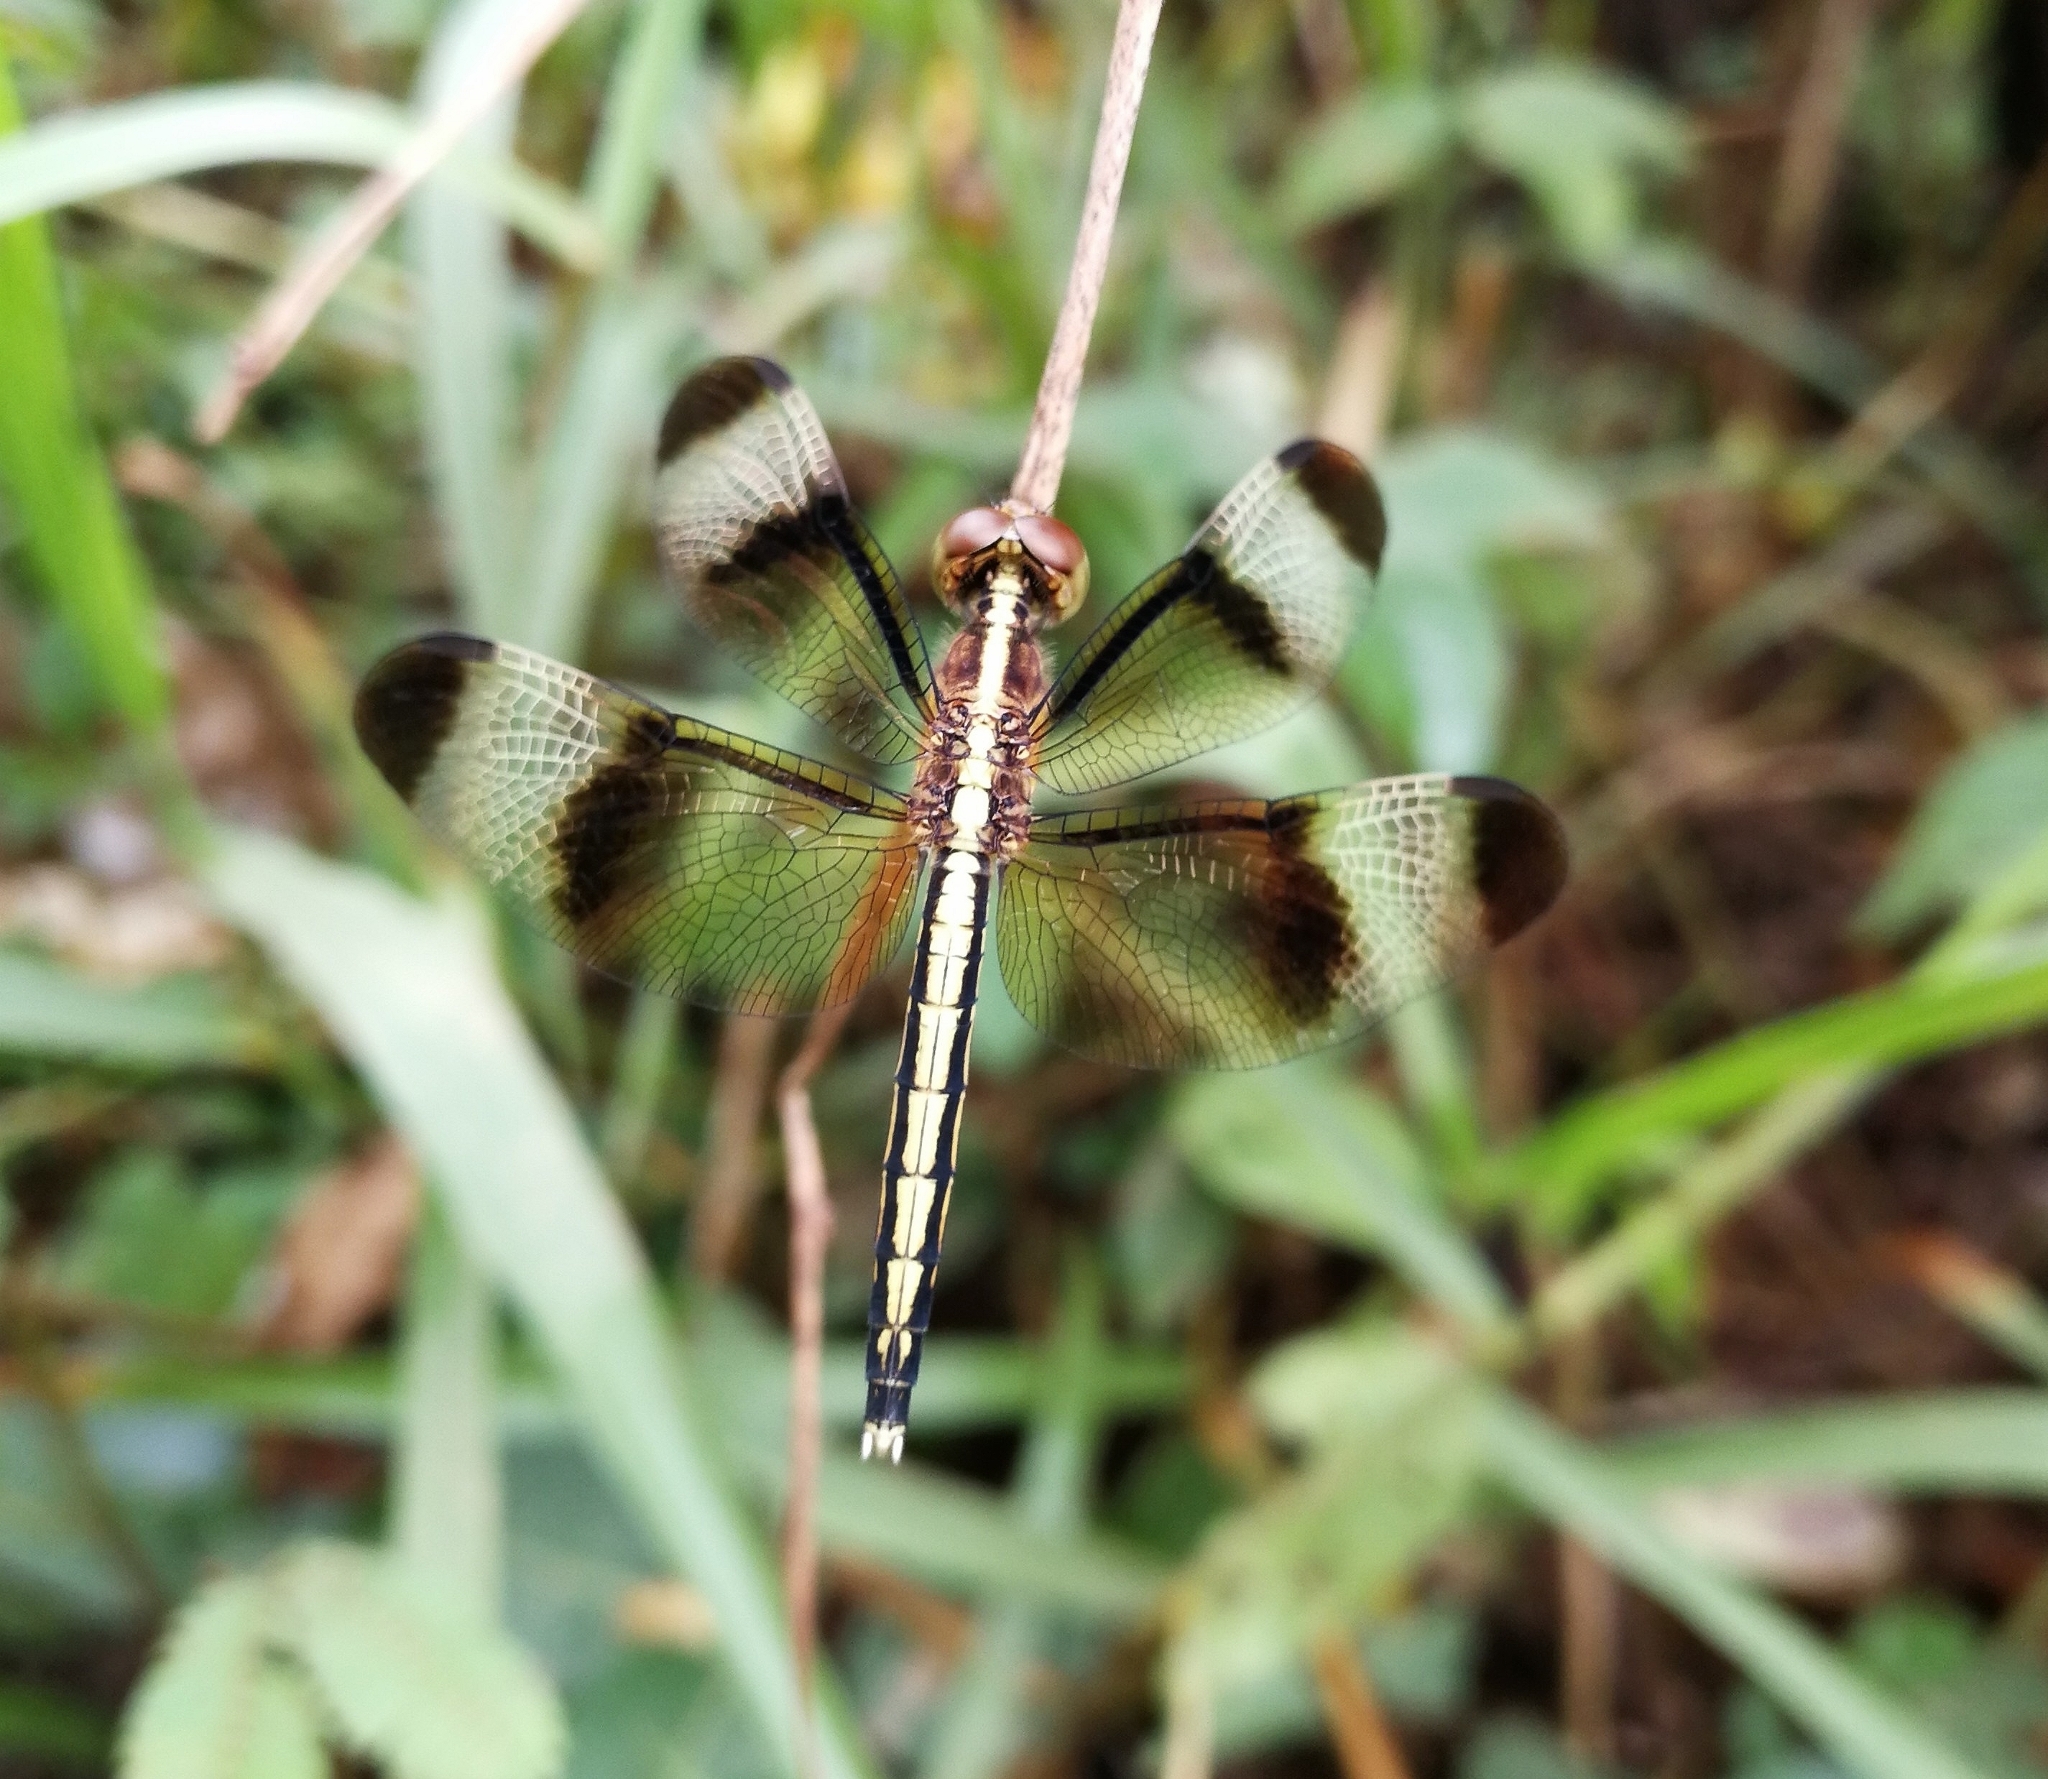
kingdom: Animalia
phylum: Arthropoda
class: Insecta
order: Odonata
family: Libellulidae
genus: Neurothemis
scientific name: Neurothemis tullia
